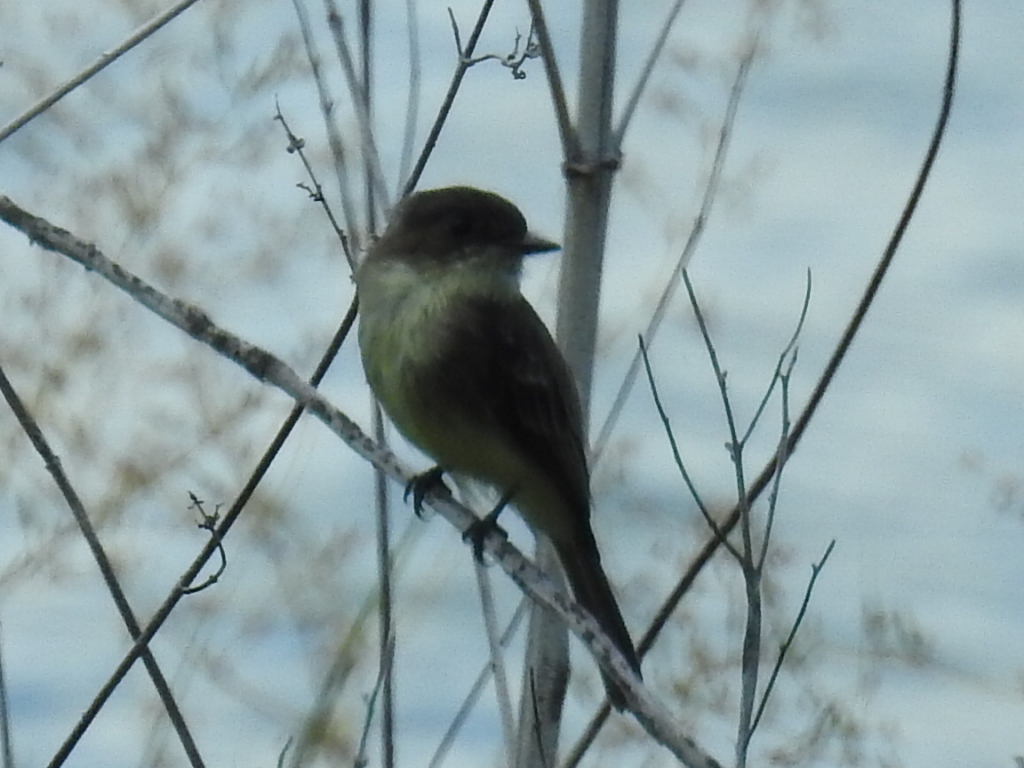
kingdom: Animalia
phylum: Chordata
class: Aves
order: Passeriformes
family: Tyrannidae
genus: Sayornis
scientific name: Sayornis phoebe
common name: Eastern phoebe
